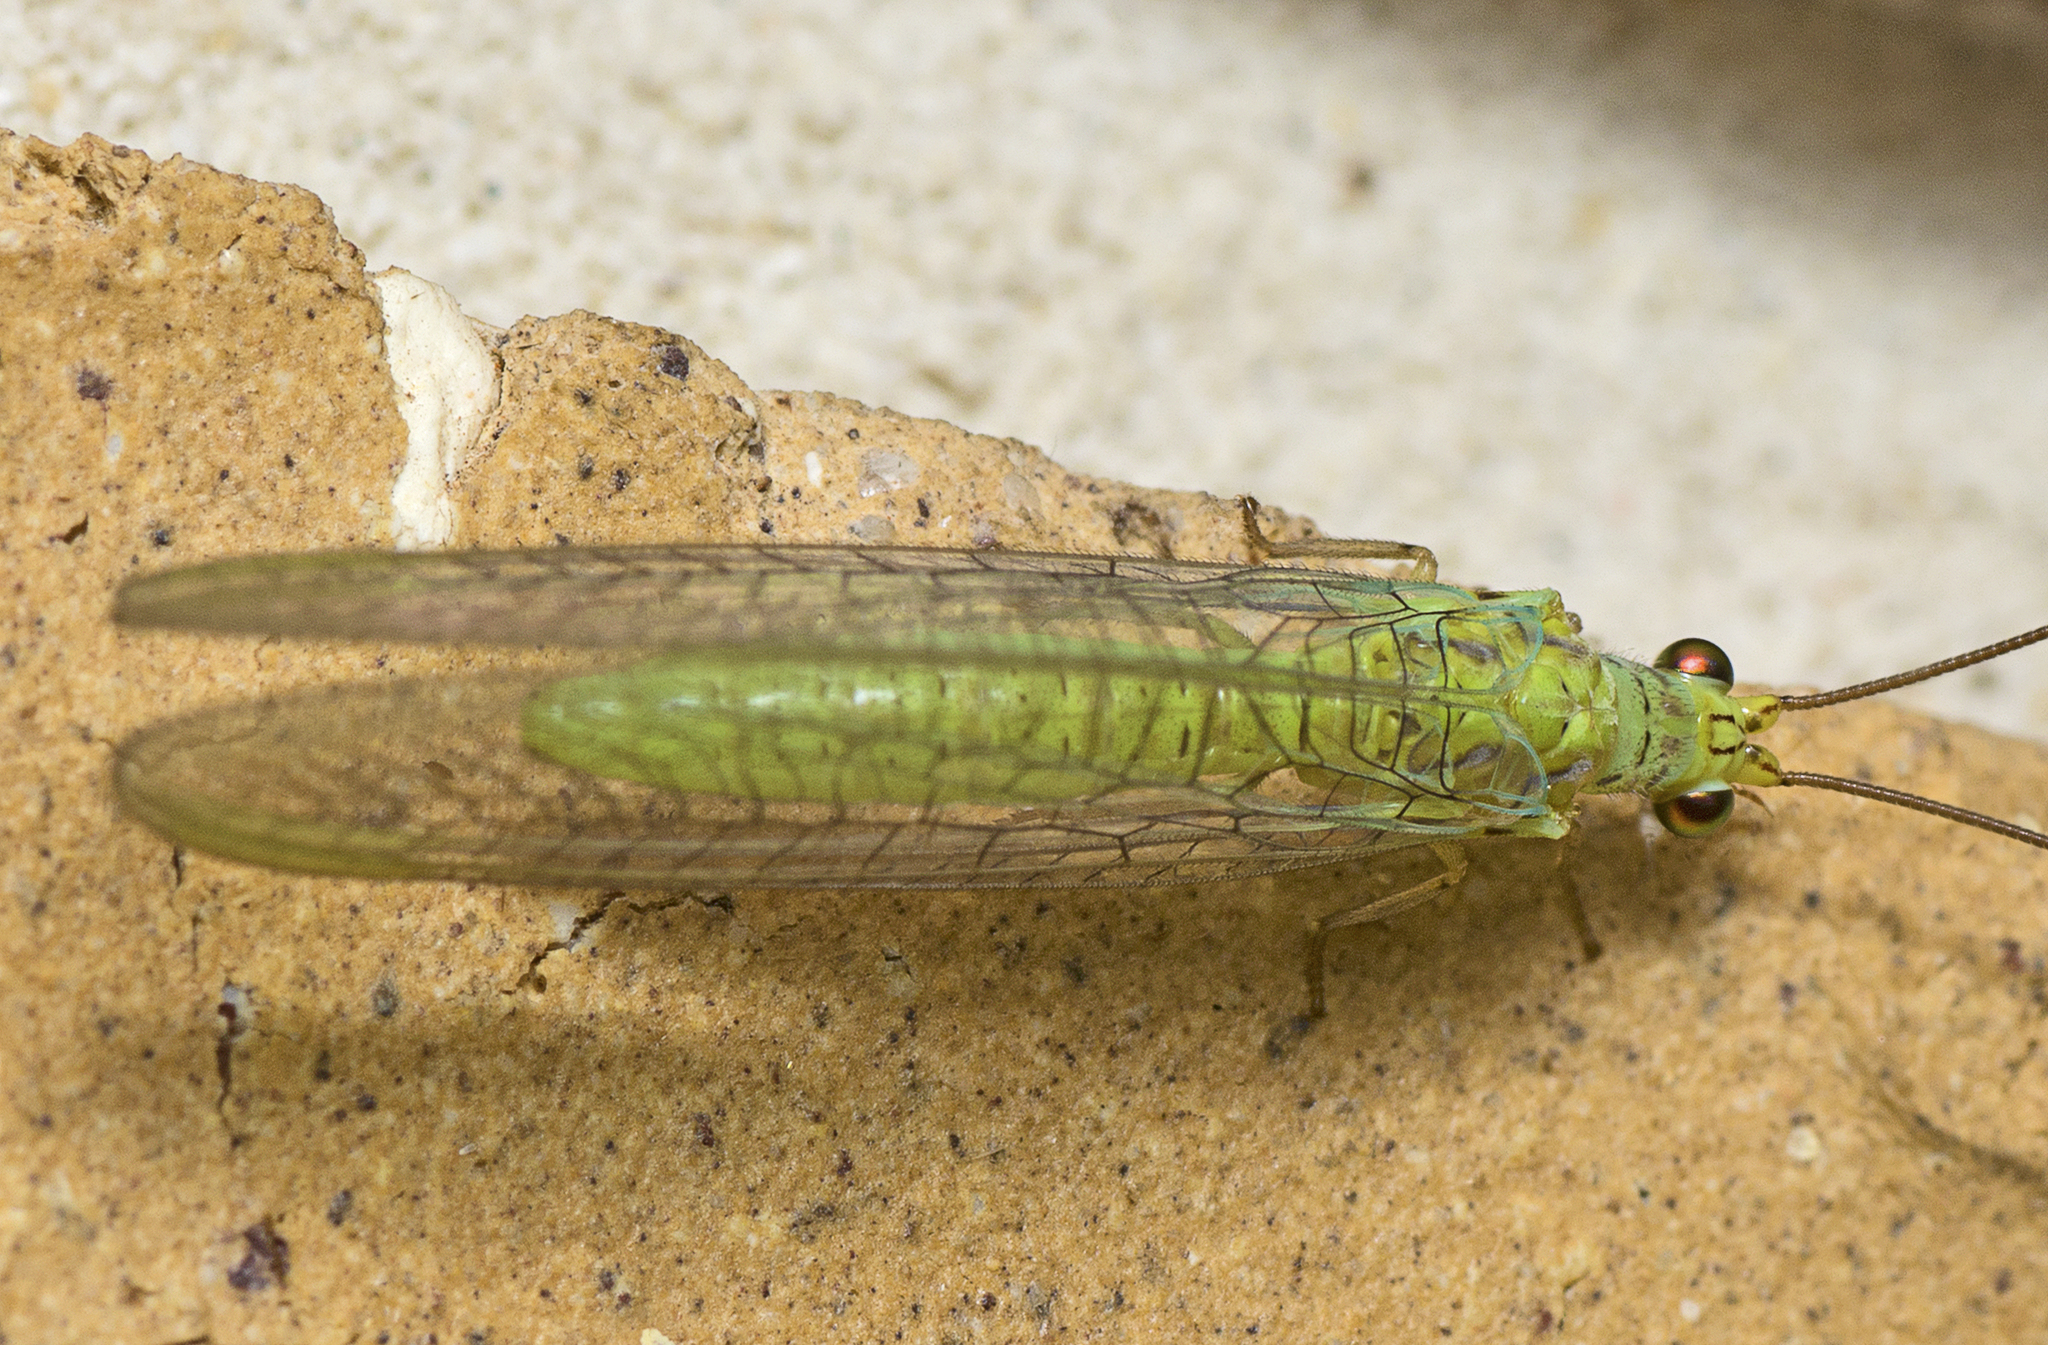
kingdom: Animalia
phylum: Arthropoda
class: Insecta
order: Neuroptera
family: Chrysopidae
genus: Plesiochrysa
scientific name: Plesiochrysa ramburi
